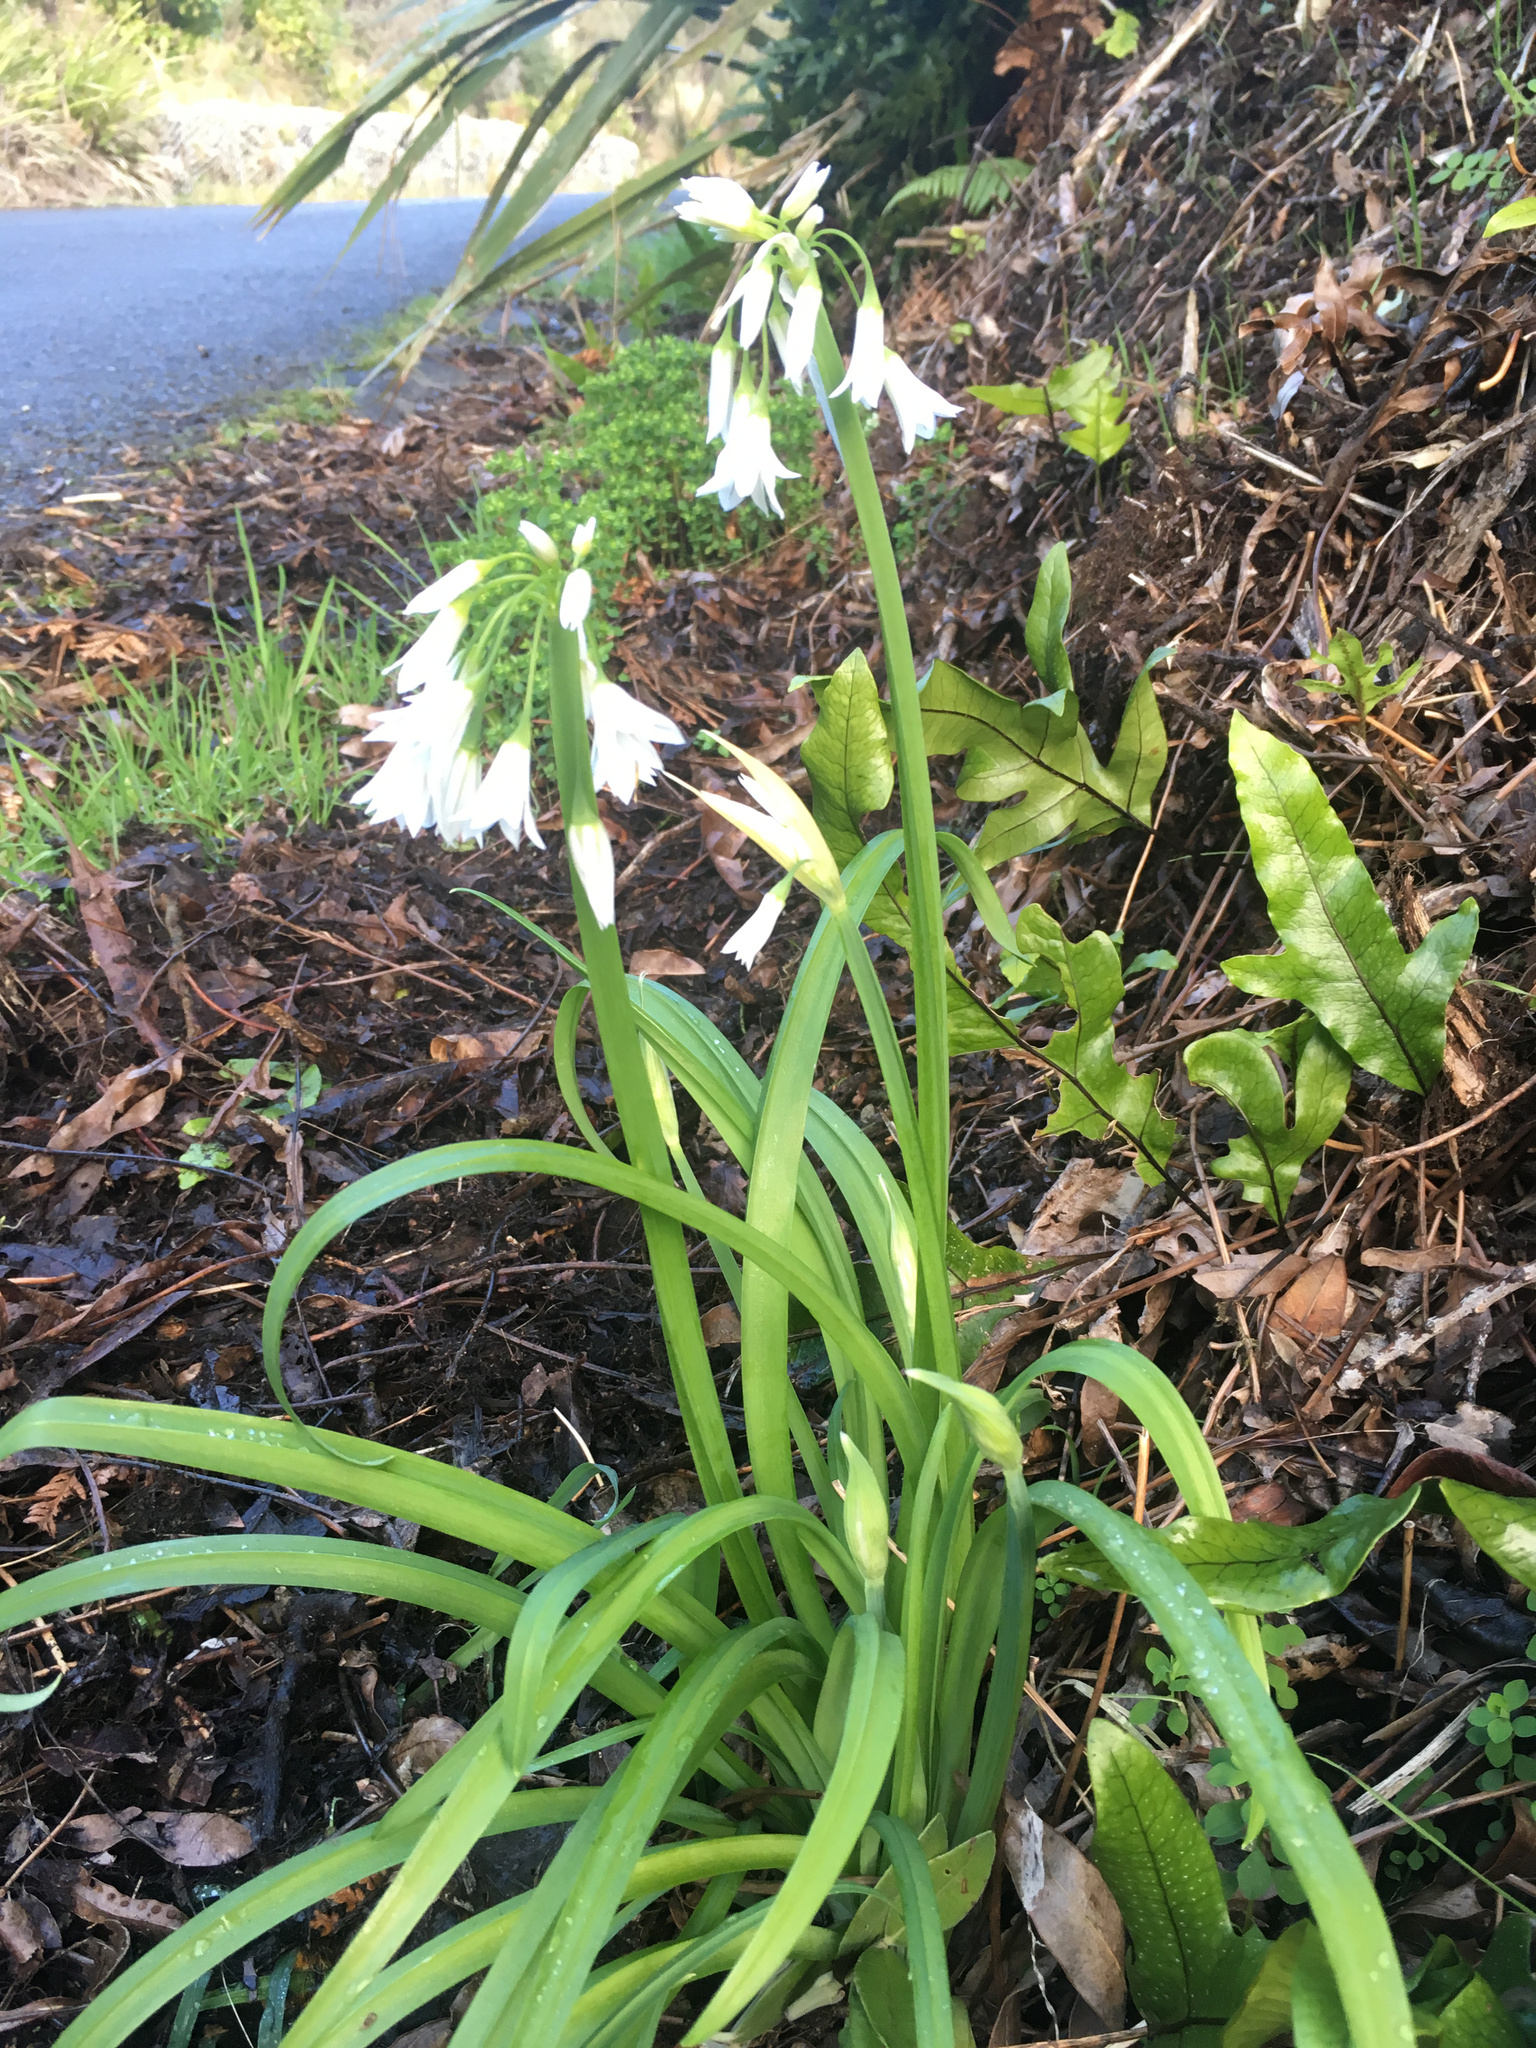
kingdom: Plantae
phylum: Tracheophyta
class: Liliopsida
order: Asparagales
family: Amaryllidaceae
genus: Allium
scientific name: Allium triquetrum
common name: Three-cornered garlic
